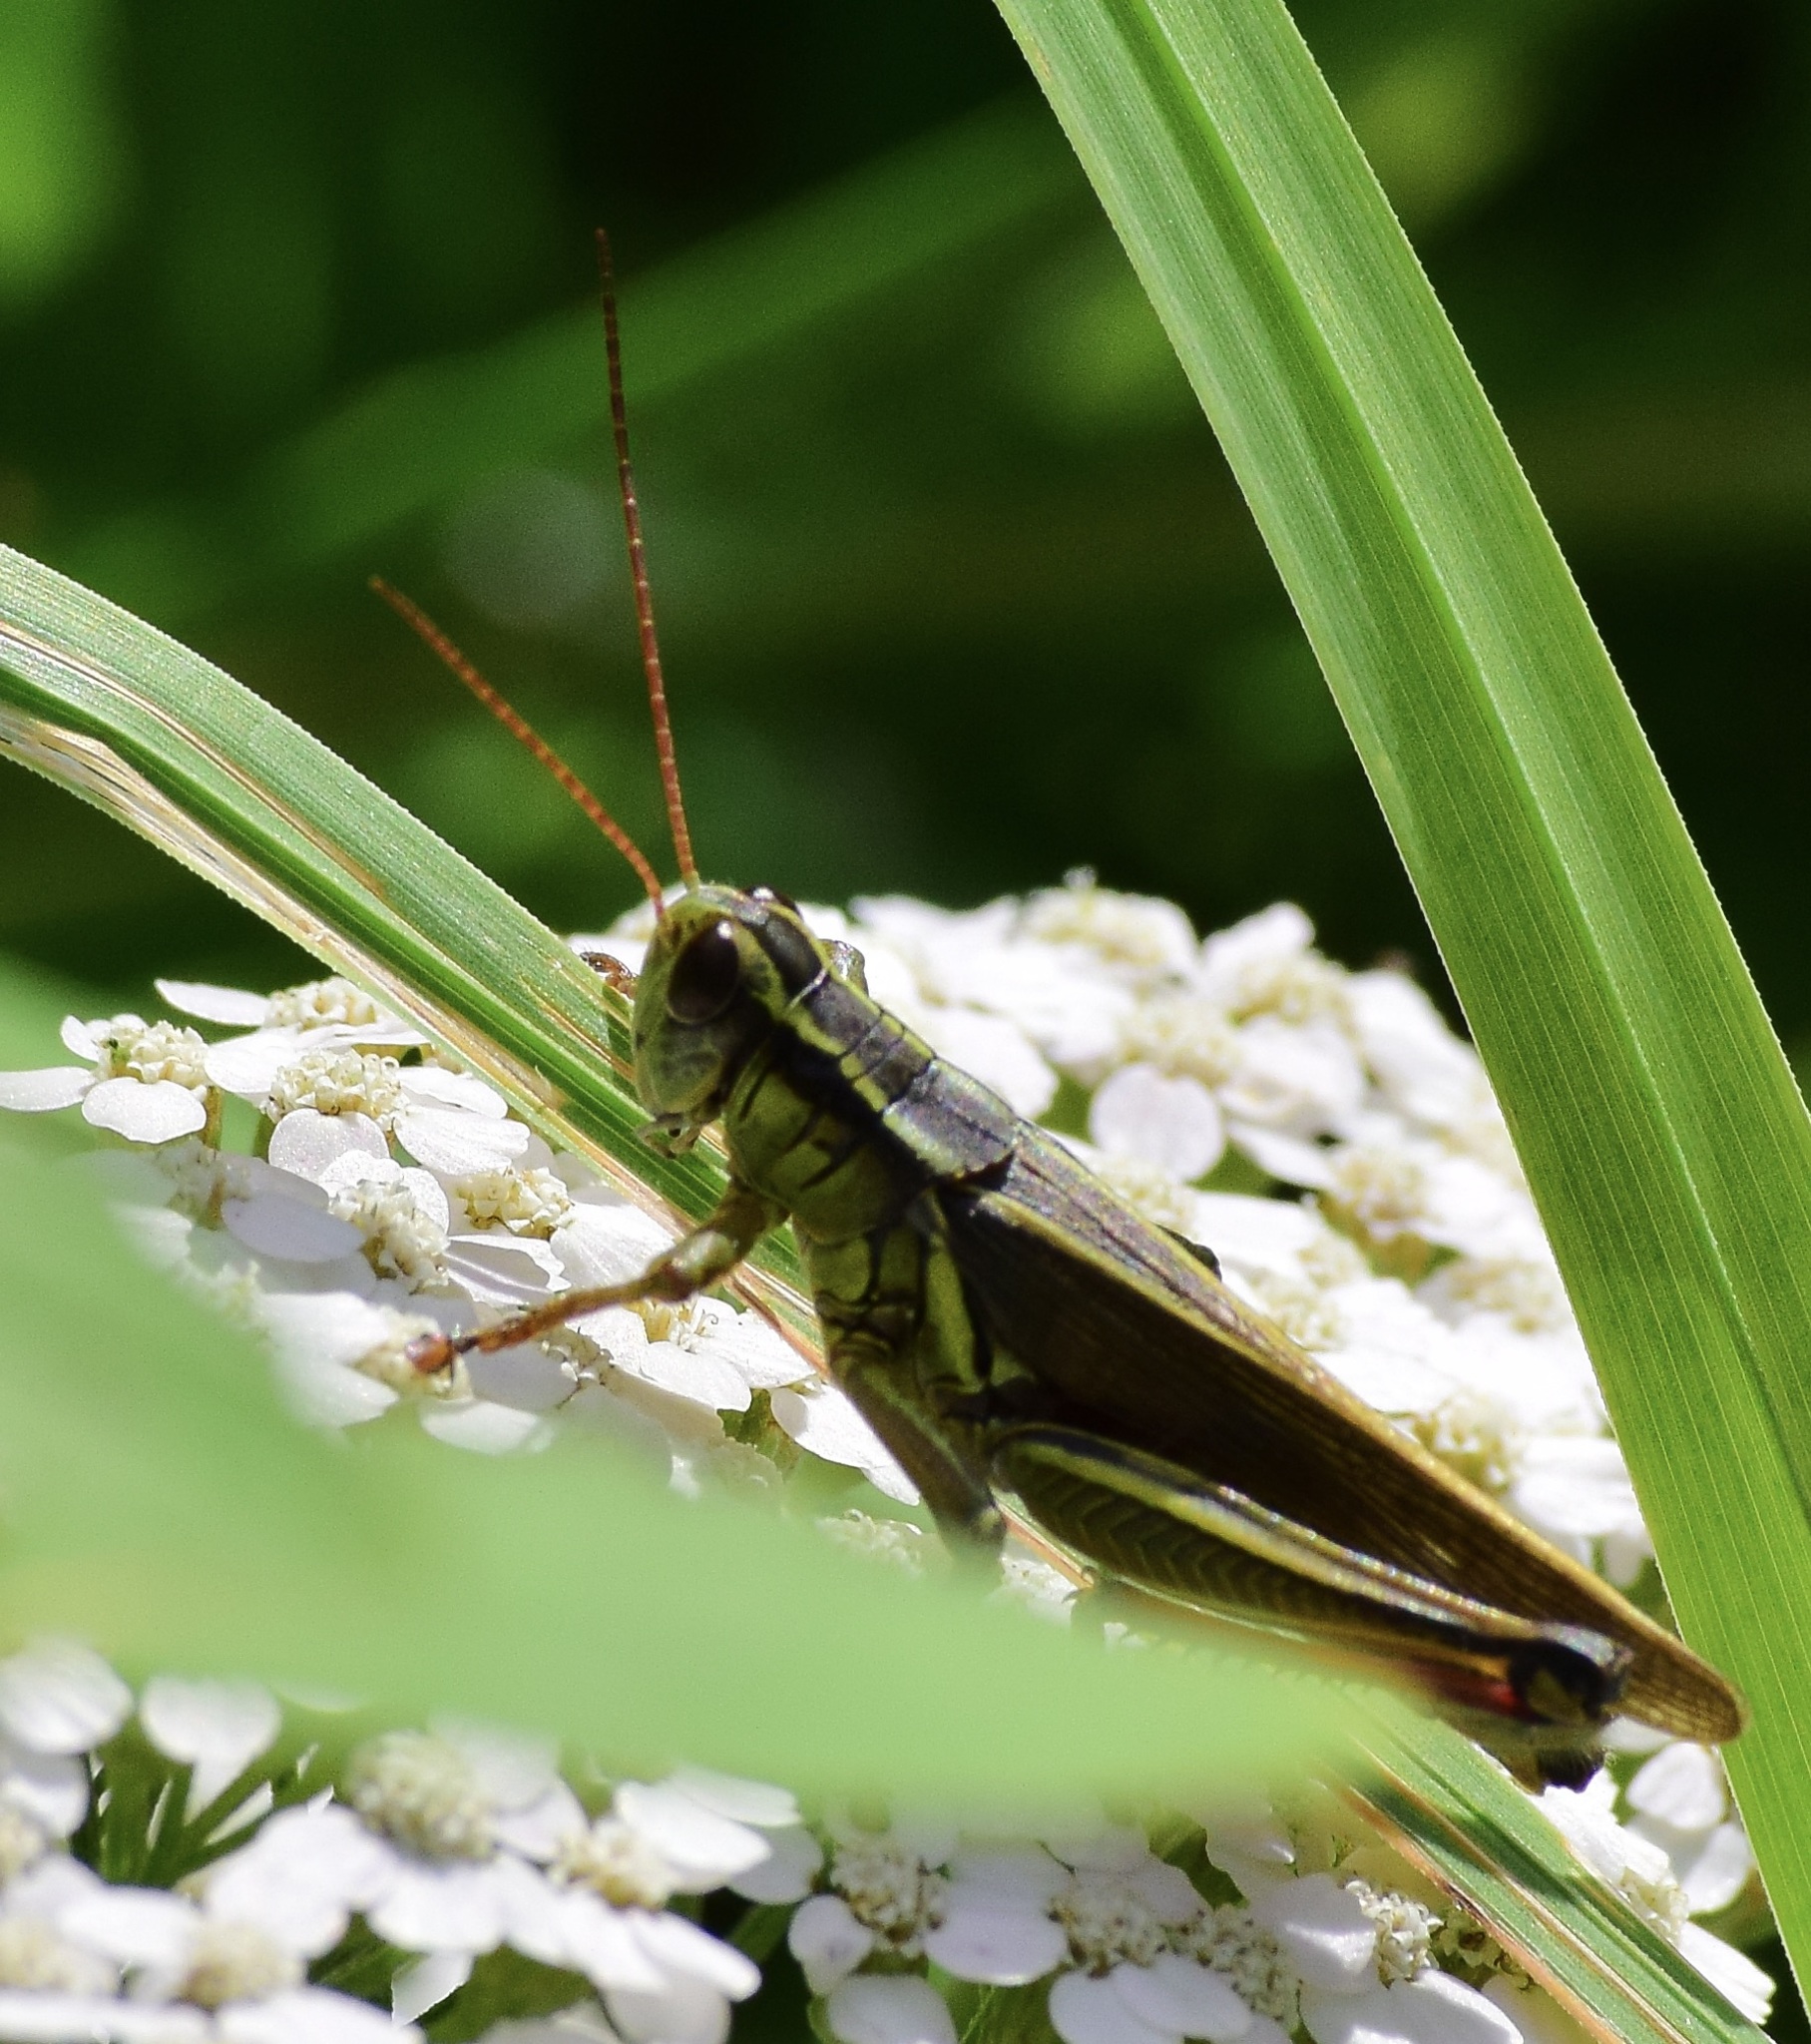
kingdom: Animalia
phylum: Arthropoda
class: Insecta
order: Orthoptera
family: Acrididae
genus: Melanoplus
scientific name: Melanoplus bivittatus
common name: Two-striped grasshopper
